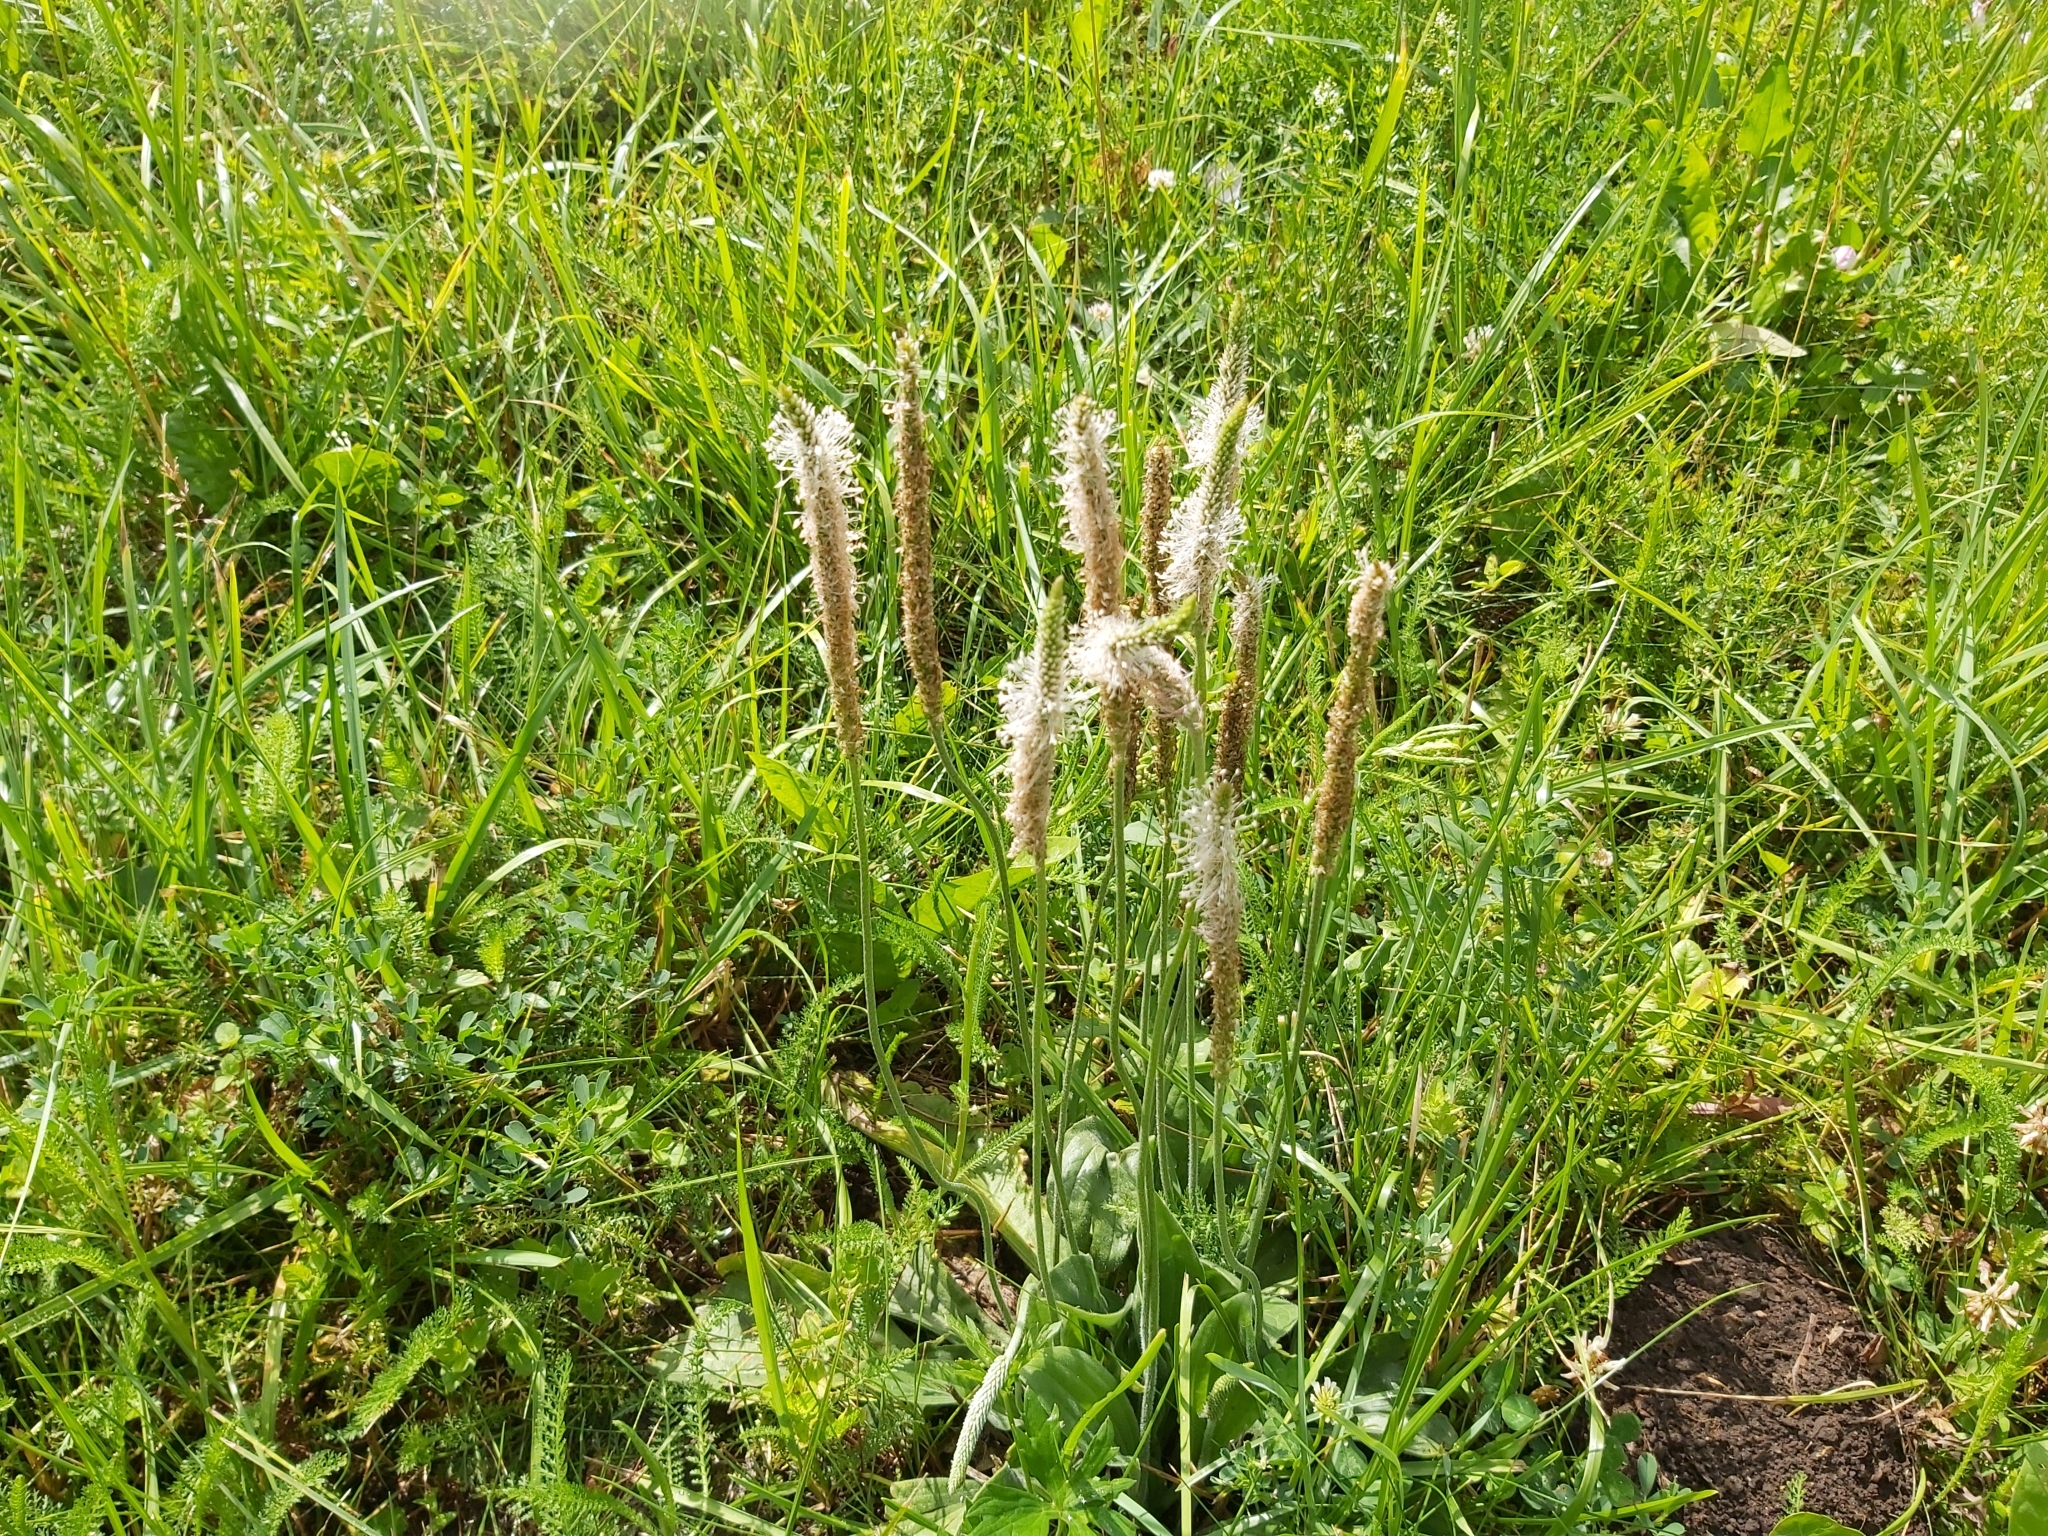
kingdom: Plantae
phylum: Tracheophyta
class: Magnoliopsida
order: Lamiales
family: Plantaginaceae
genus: Plantago
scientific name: Plantago media
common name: Hoary plantain
